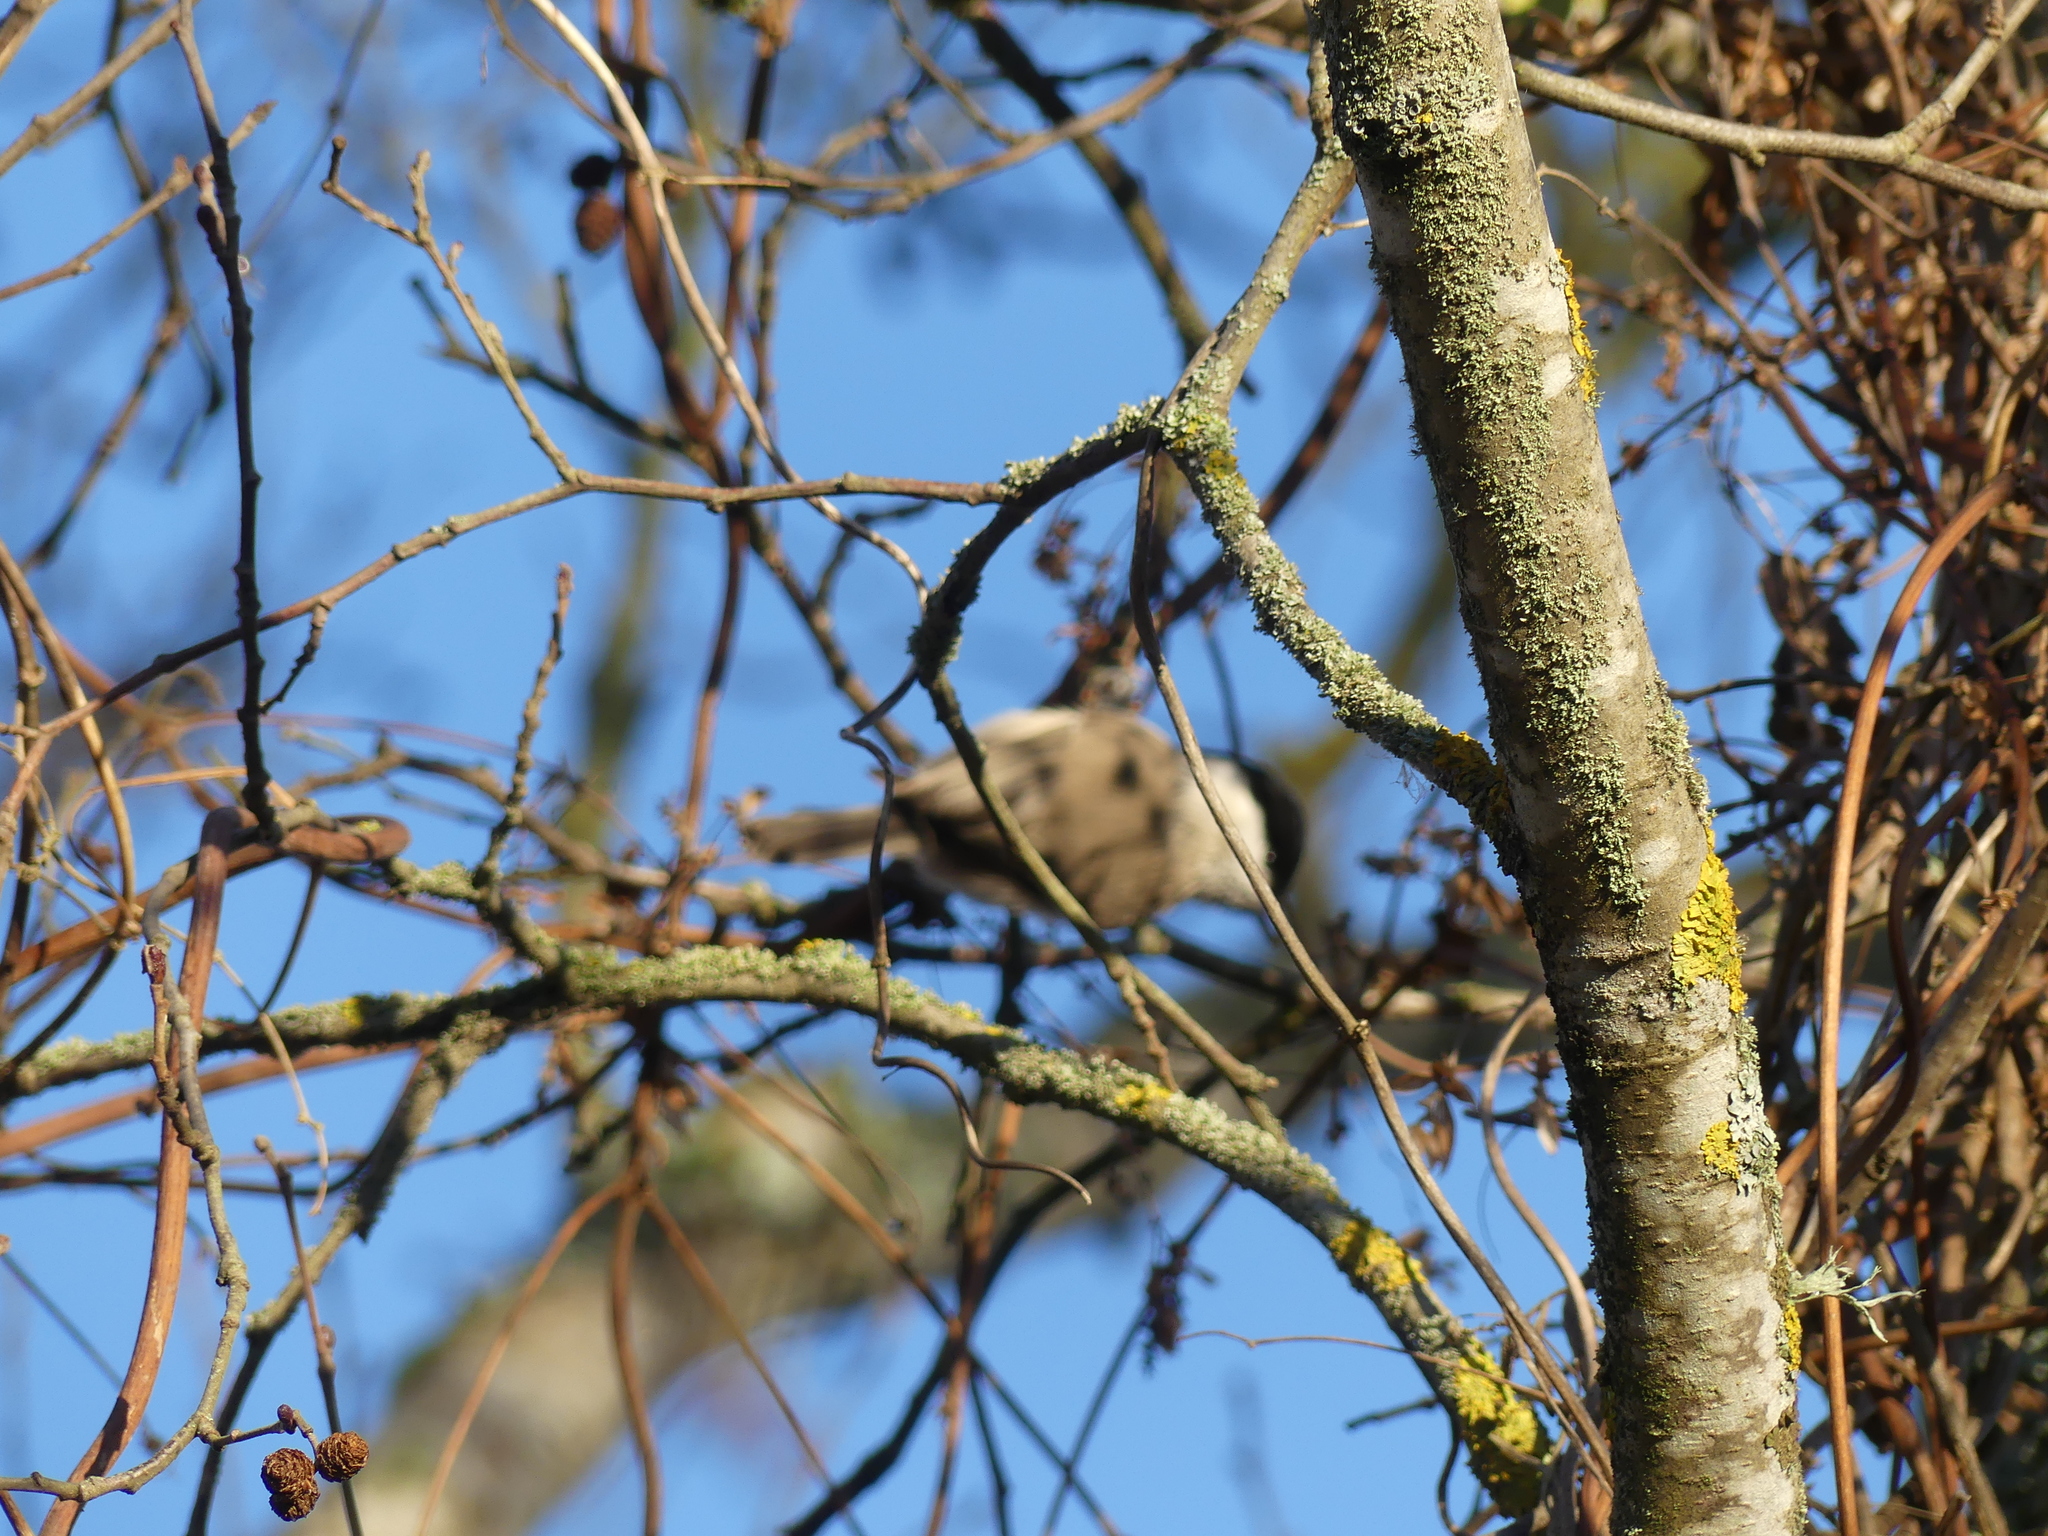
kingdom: Fungi
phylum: Ascomycota
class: Lecanoromycetes
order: Teloschistales
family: Teloschistaceae
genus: Xanthoria
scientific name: Xanthoria parietina
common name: Common orange lichen
